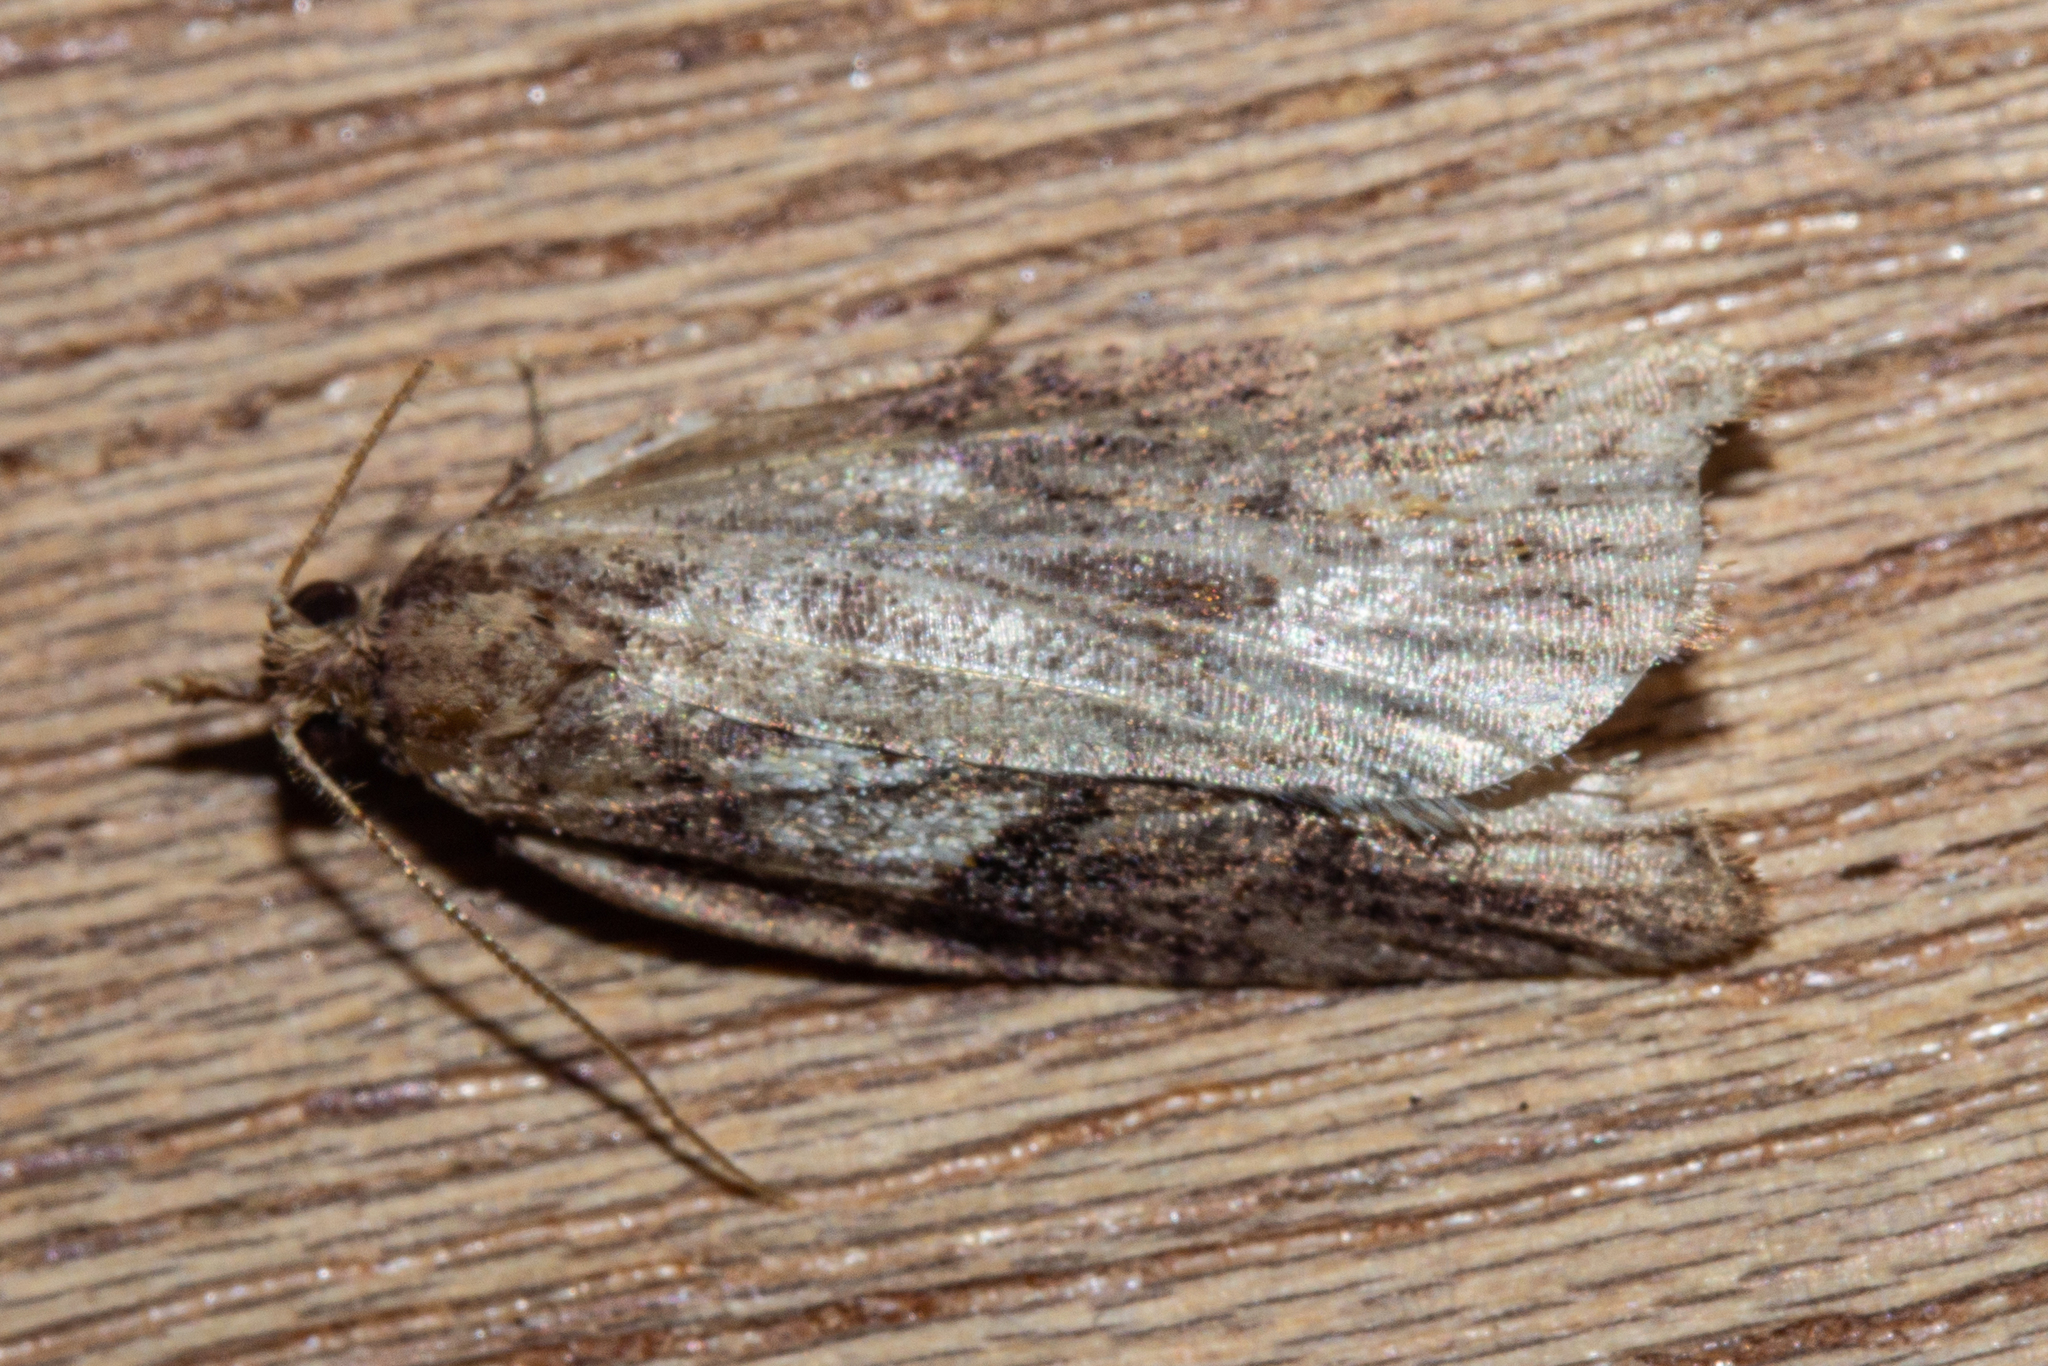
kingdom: Animalia
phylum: Arthropoda
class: Insecta
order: Lepidoptera
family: Tortricidae
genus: Ctenopseustis
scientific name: Ctenopseustis obliquana
